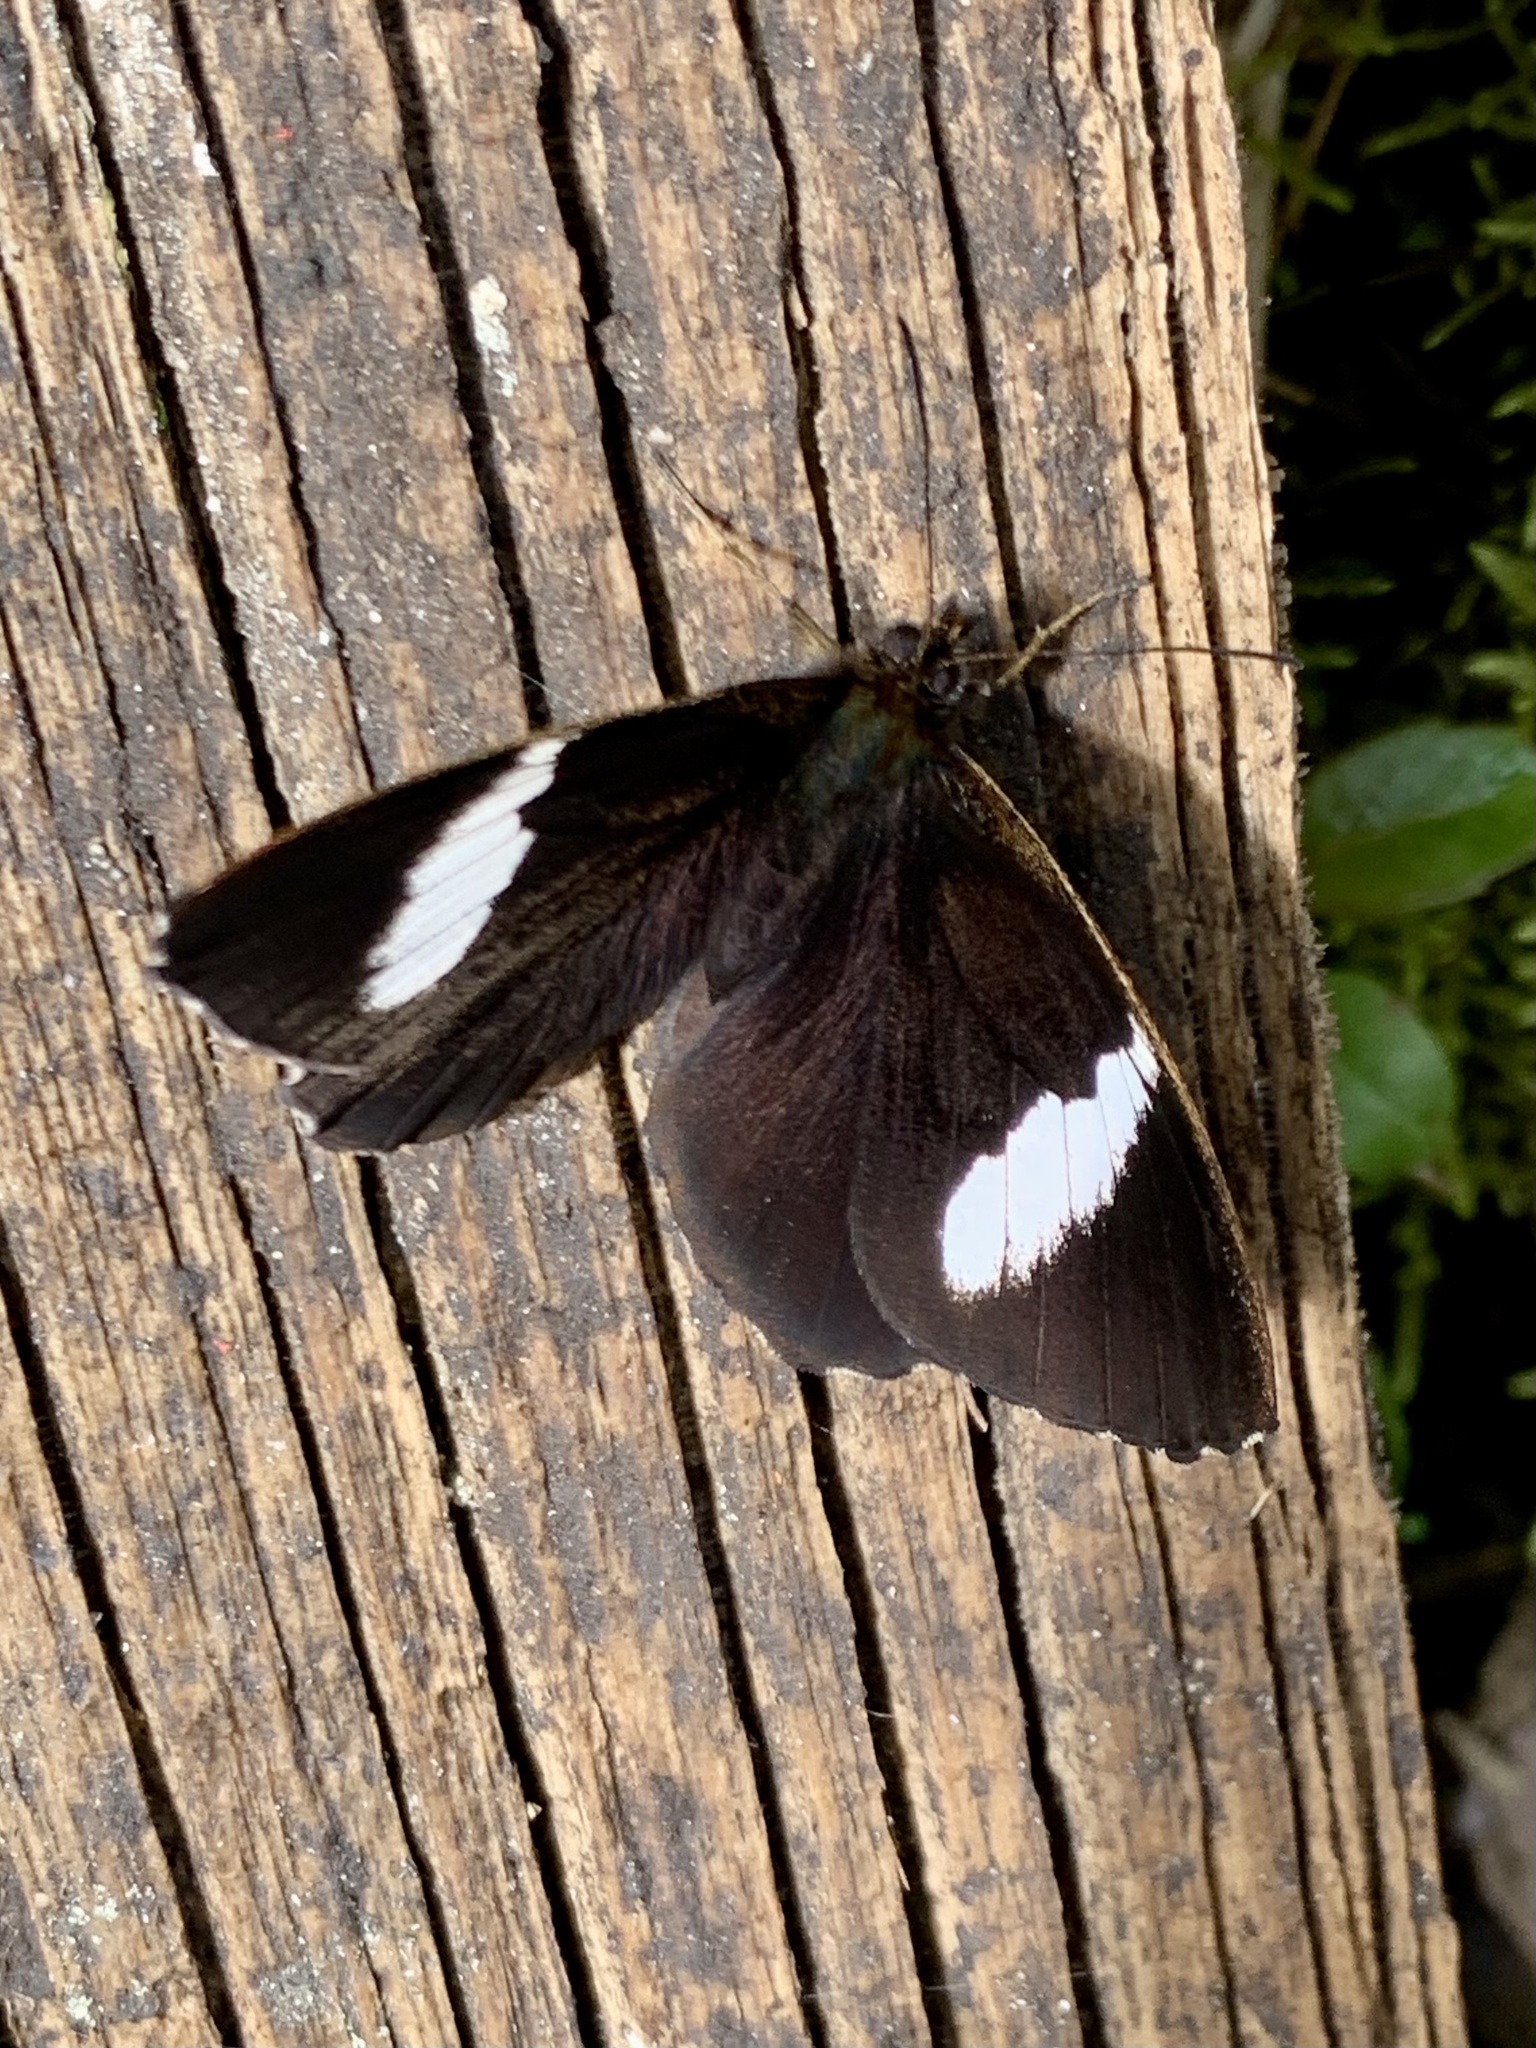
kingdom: Animalia
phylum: Arthropoda
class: Insecta
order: Lepidoptera
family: Nymphalidae
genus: Pedaliodes
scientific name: Pedaliodes peucestas
